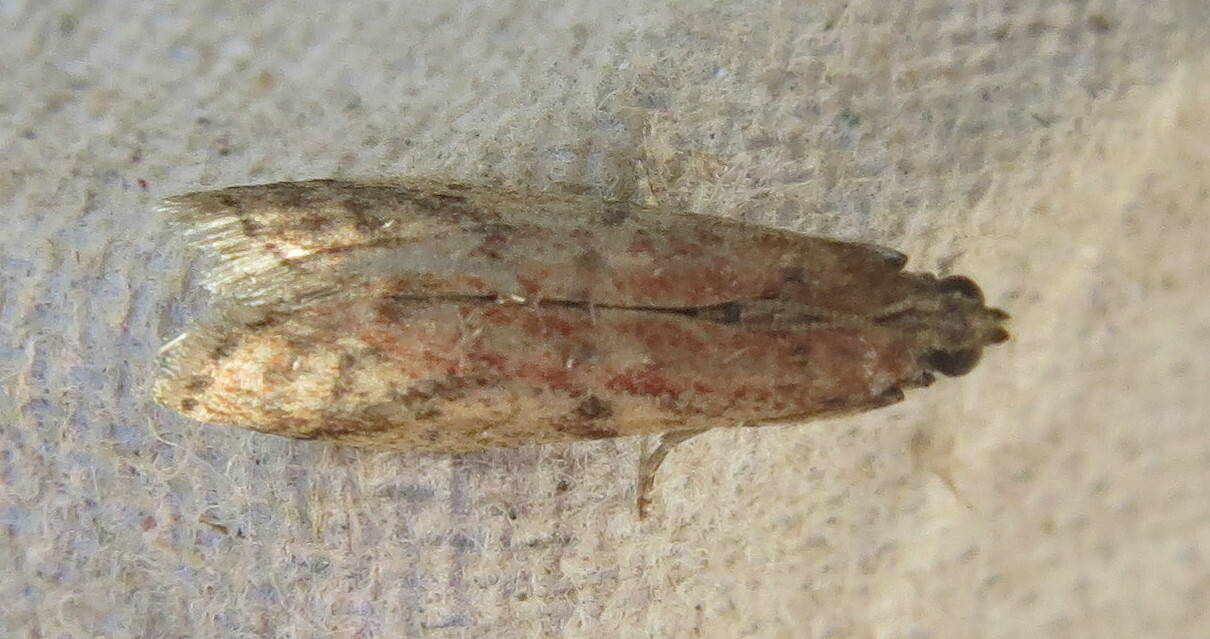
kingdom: Animalia
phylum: Arthropoda
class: Insecta
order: Lepidoptera
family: Pyralidae
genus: Ephestia
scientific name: Ephestia woodiella
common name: False cacao moth
